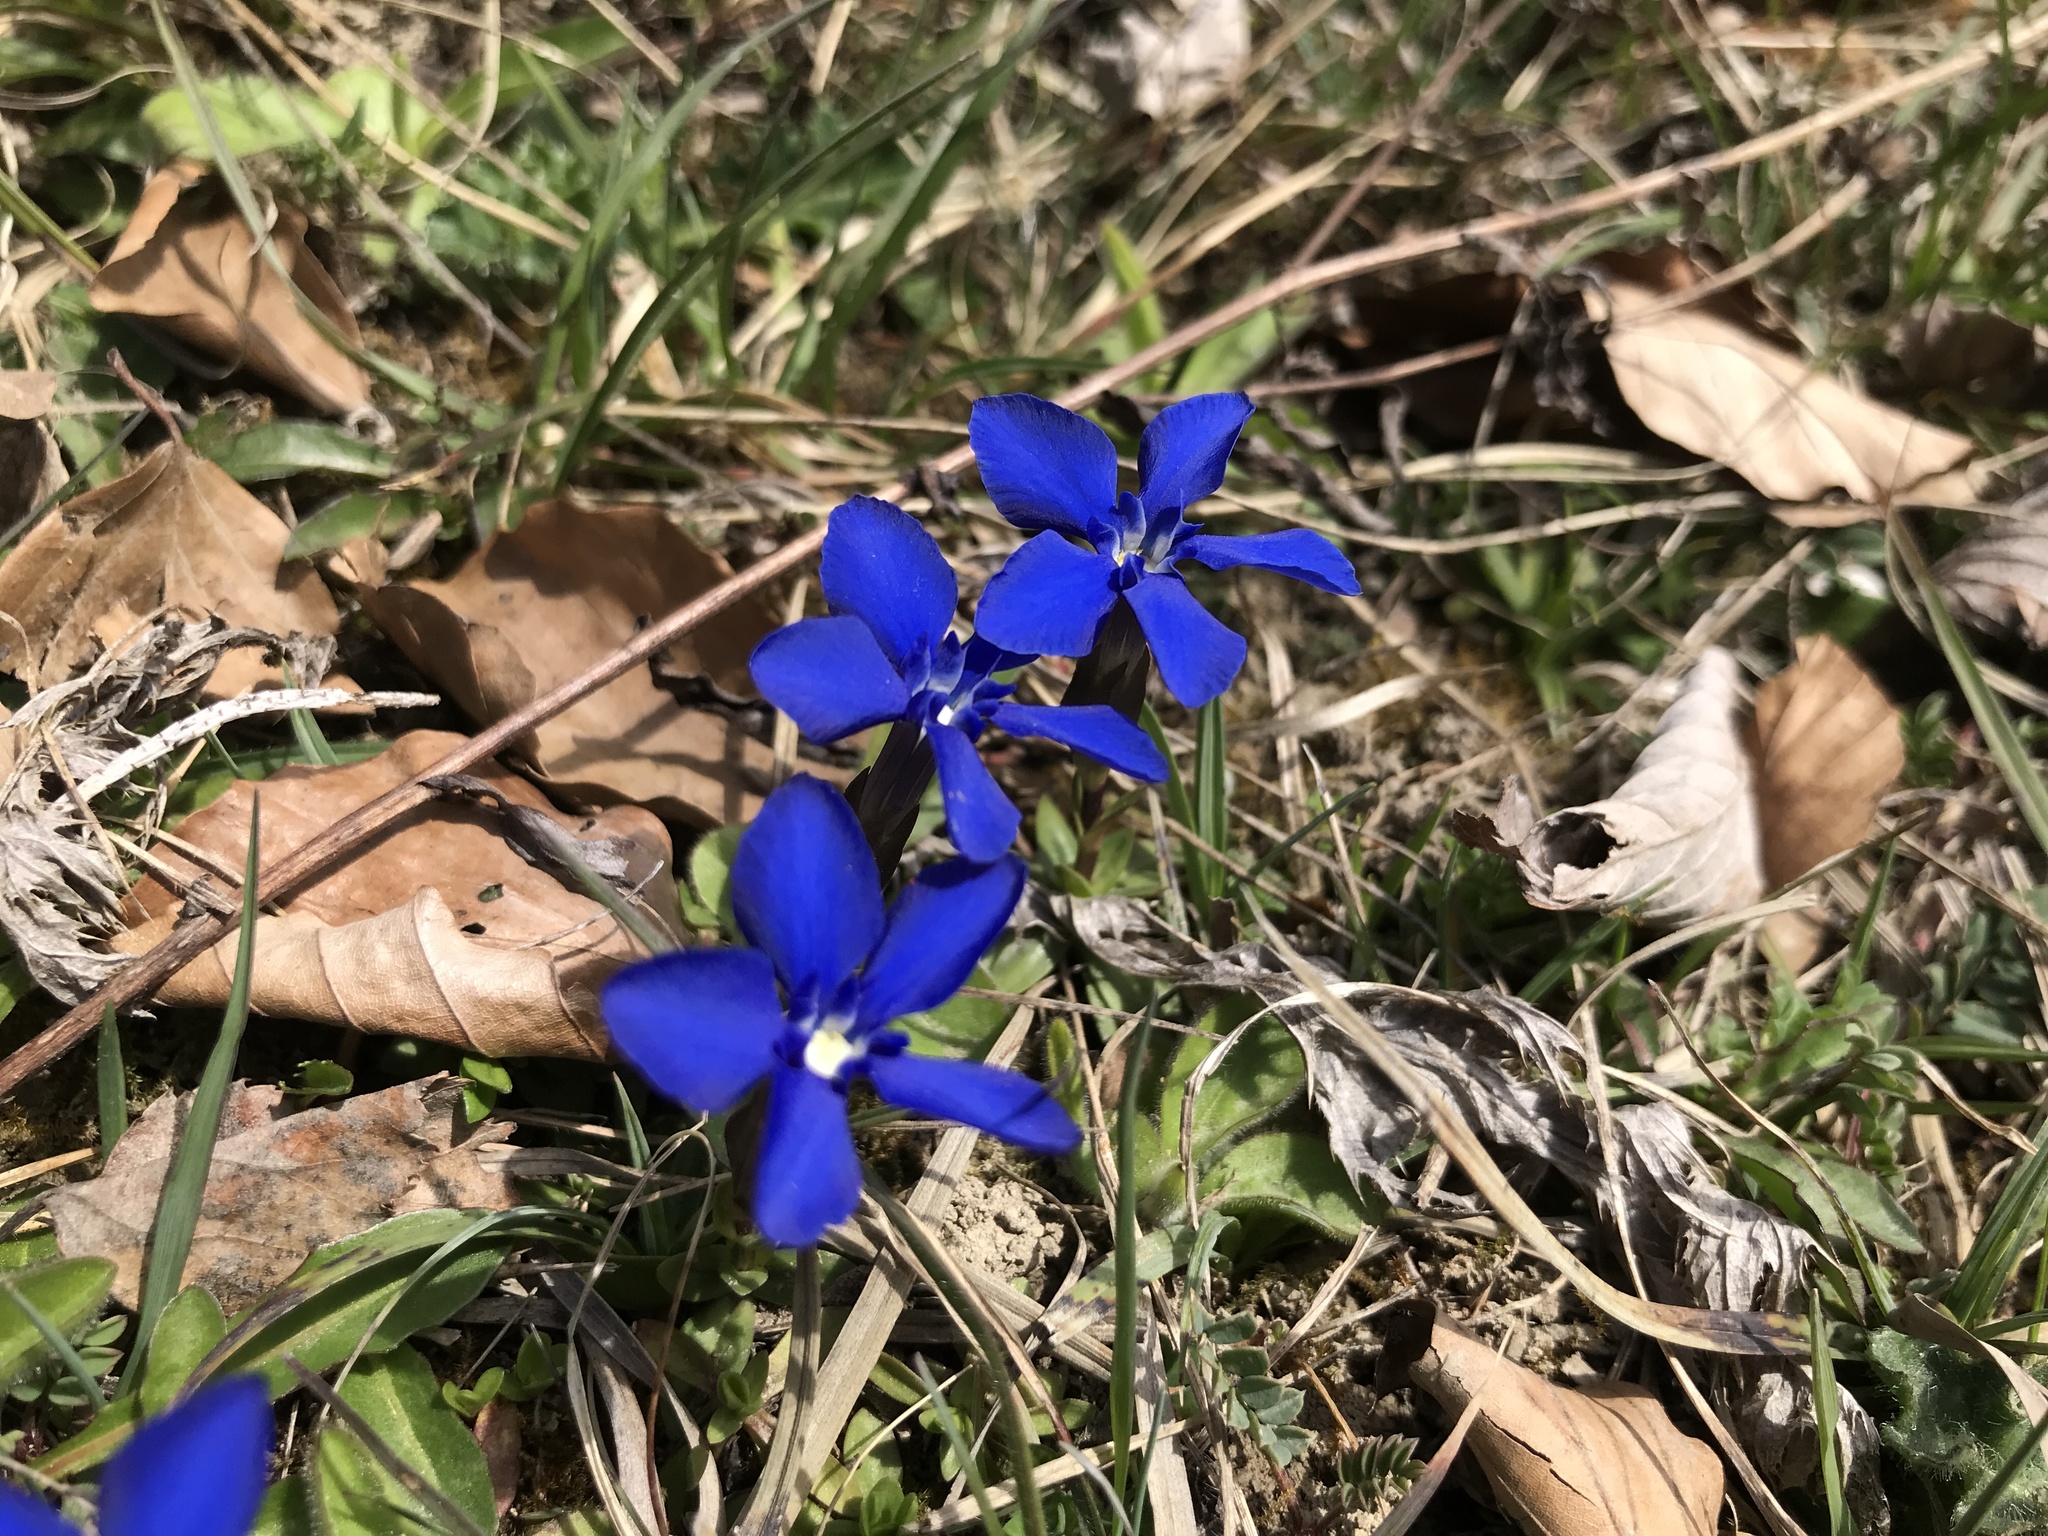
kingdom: Plantae
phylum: Tracheophyta
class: Magnoliopsida
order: Gentianales
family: Gentianaceae
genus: Gentiana
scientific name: Gentiana verna
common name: Spring gentian
